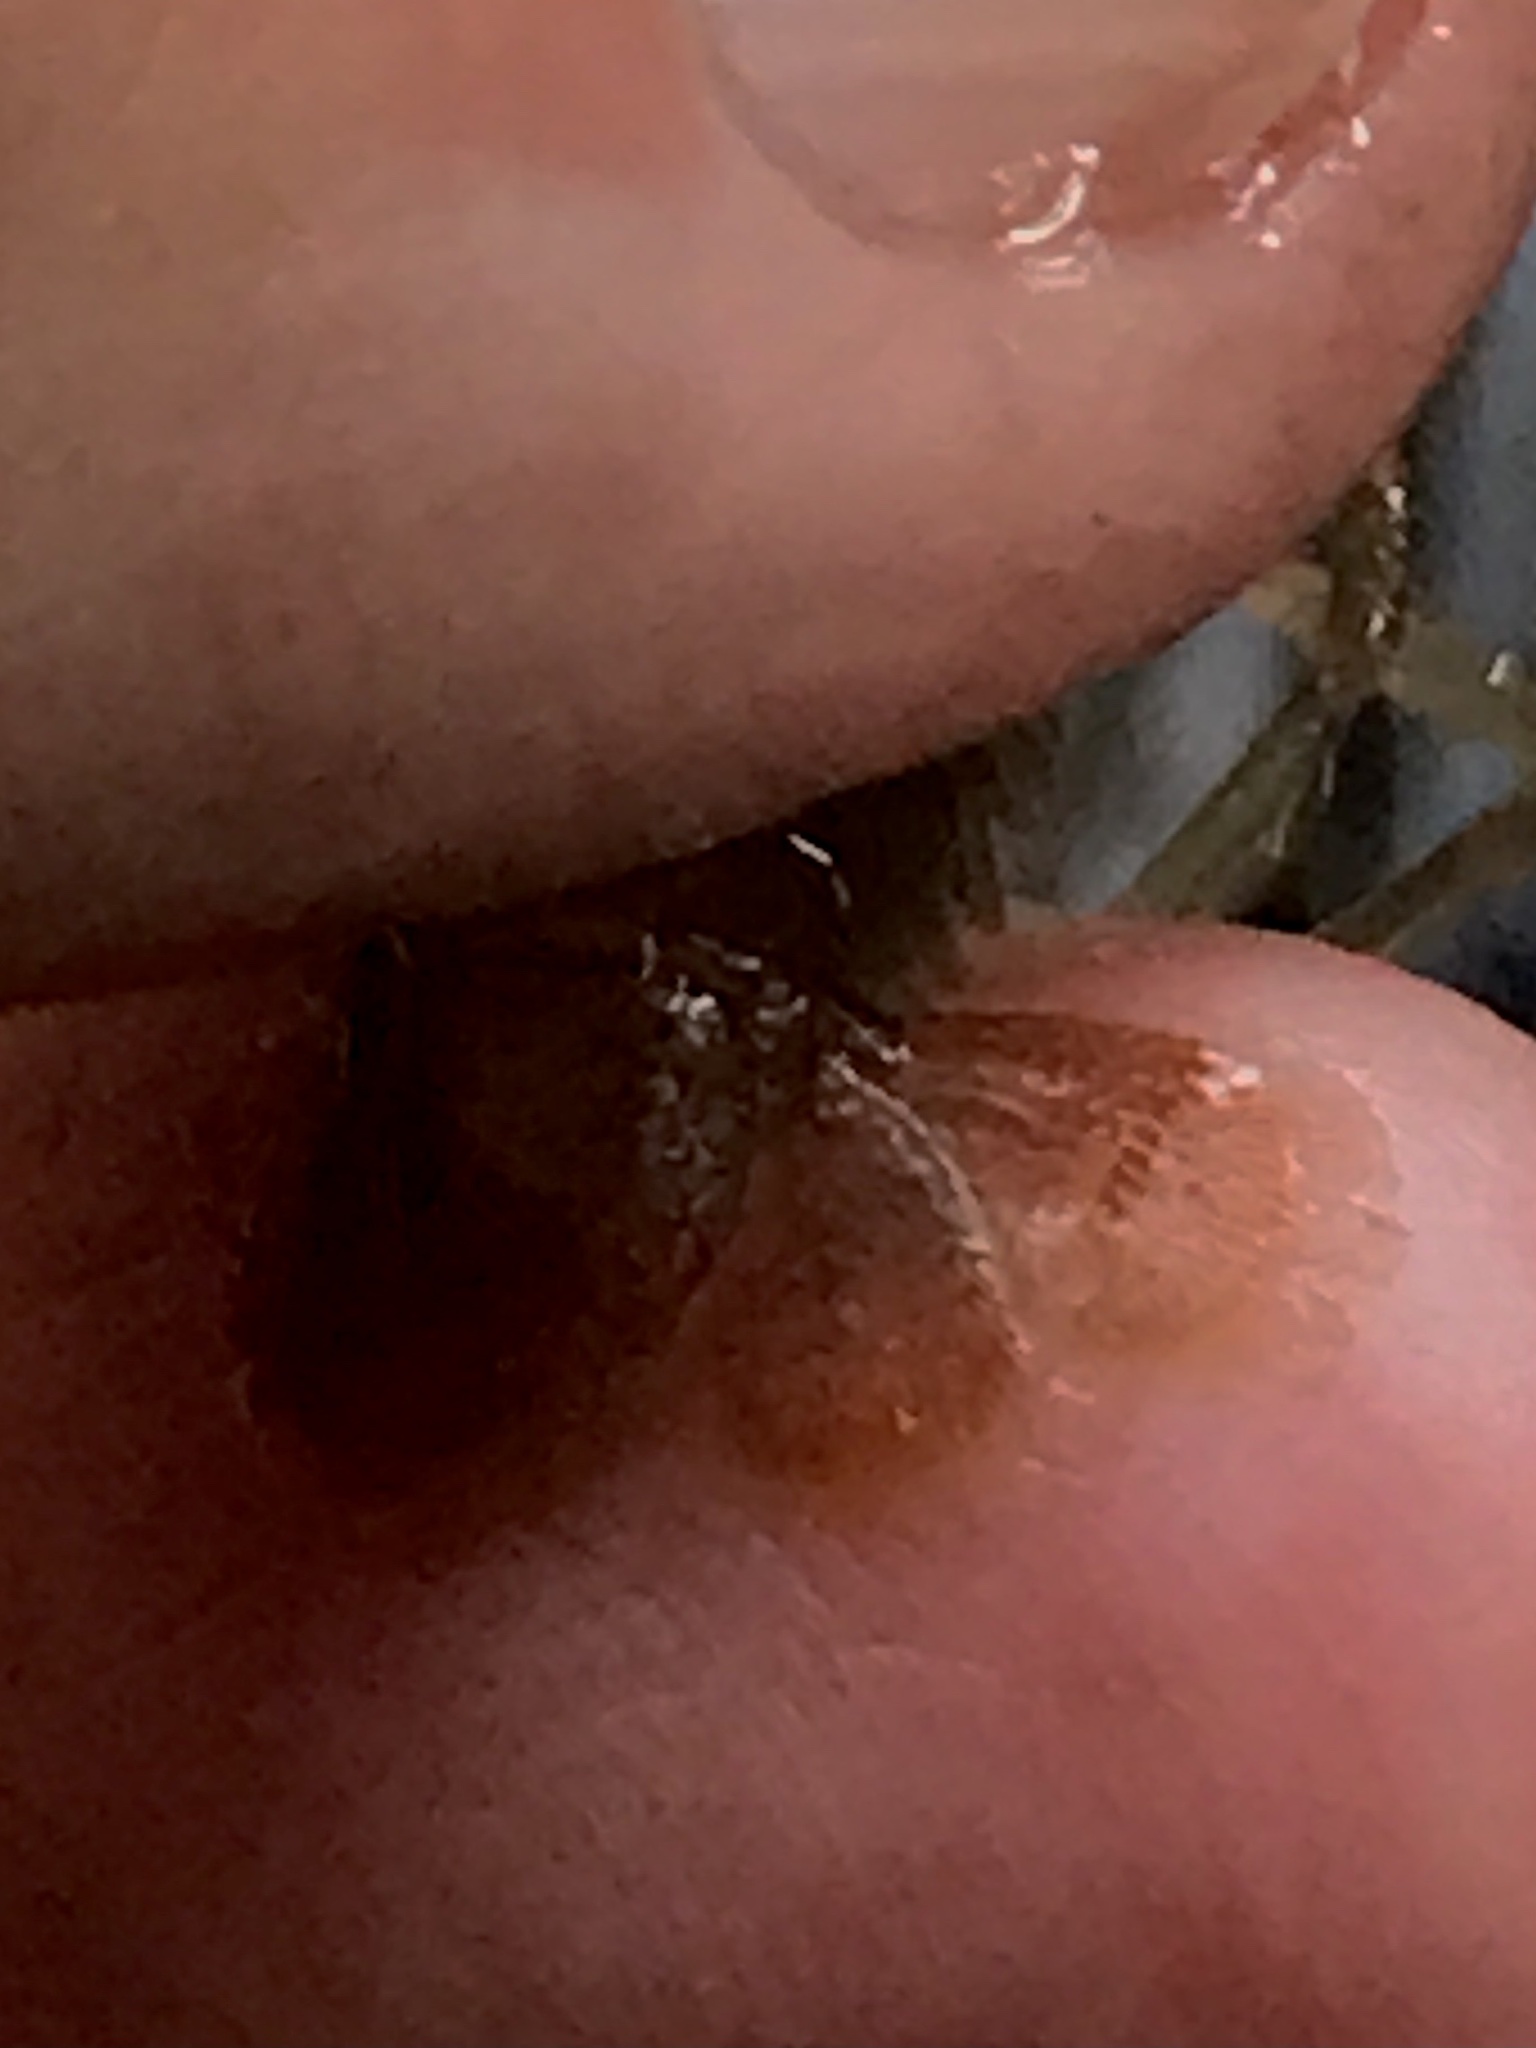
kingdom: Animalia
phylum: Arthropoda
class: Malacostraca
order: Decapoda
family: Cambaridae
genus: Faxonius
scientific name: Faxonius propinquus
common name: Northern clearwater crayfish
